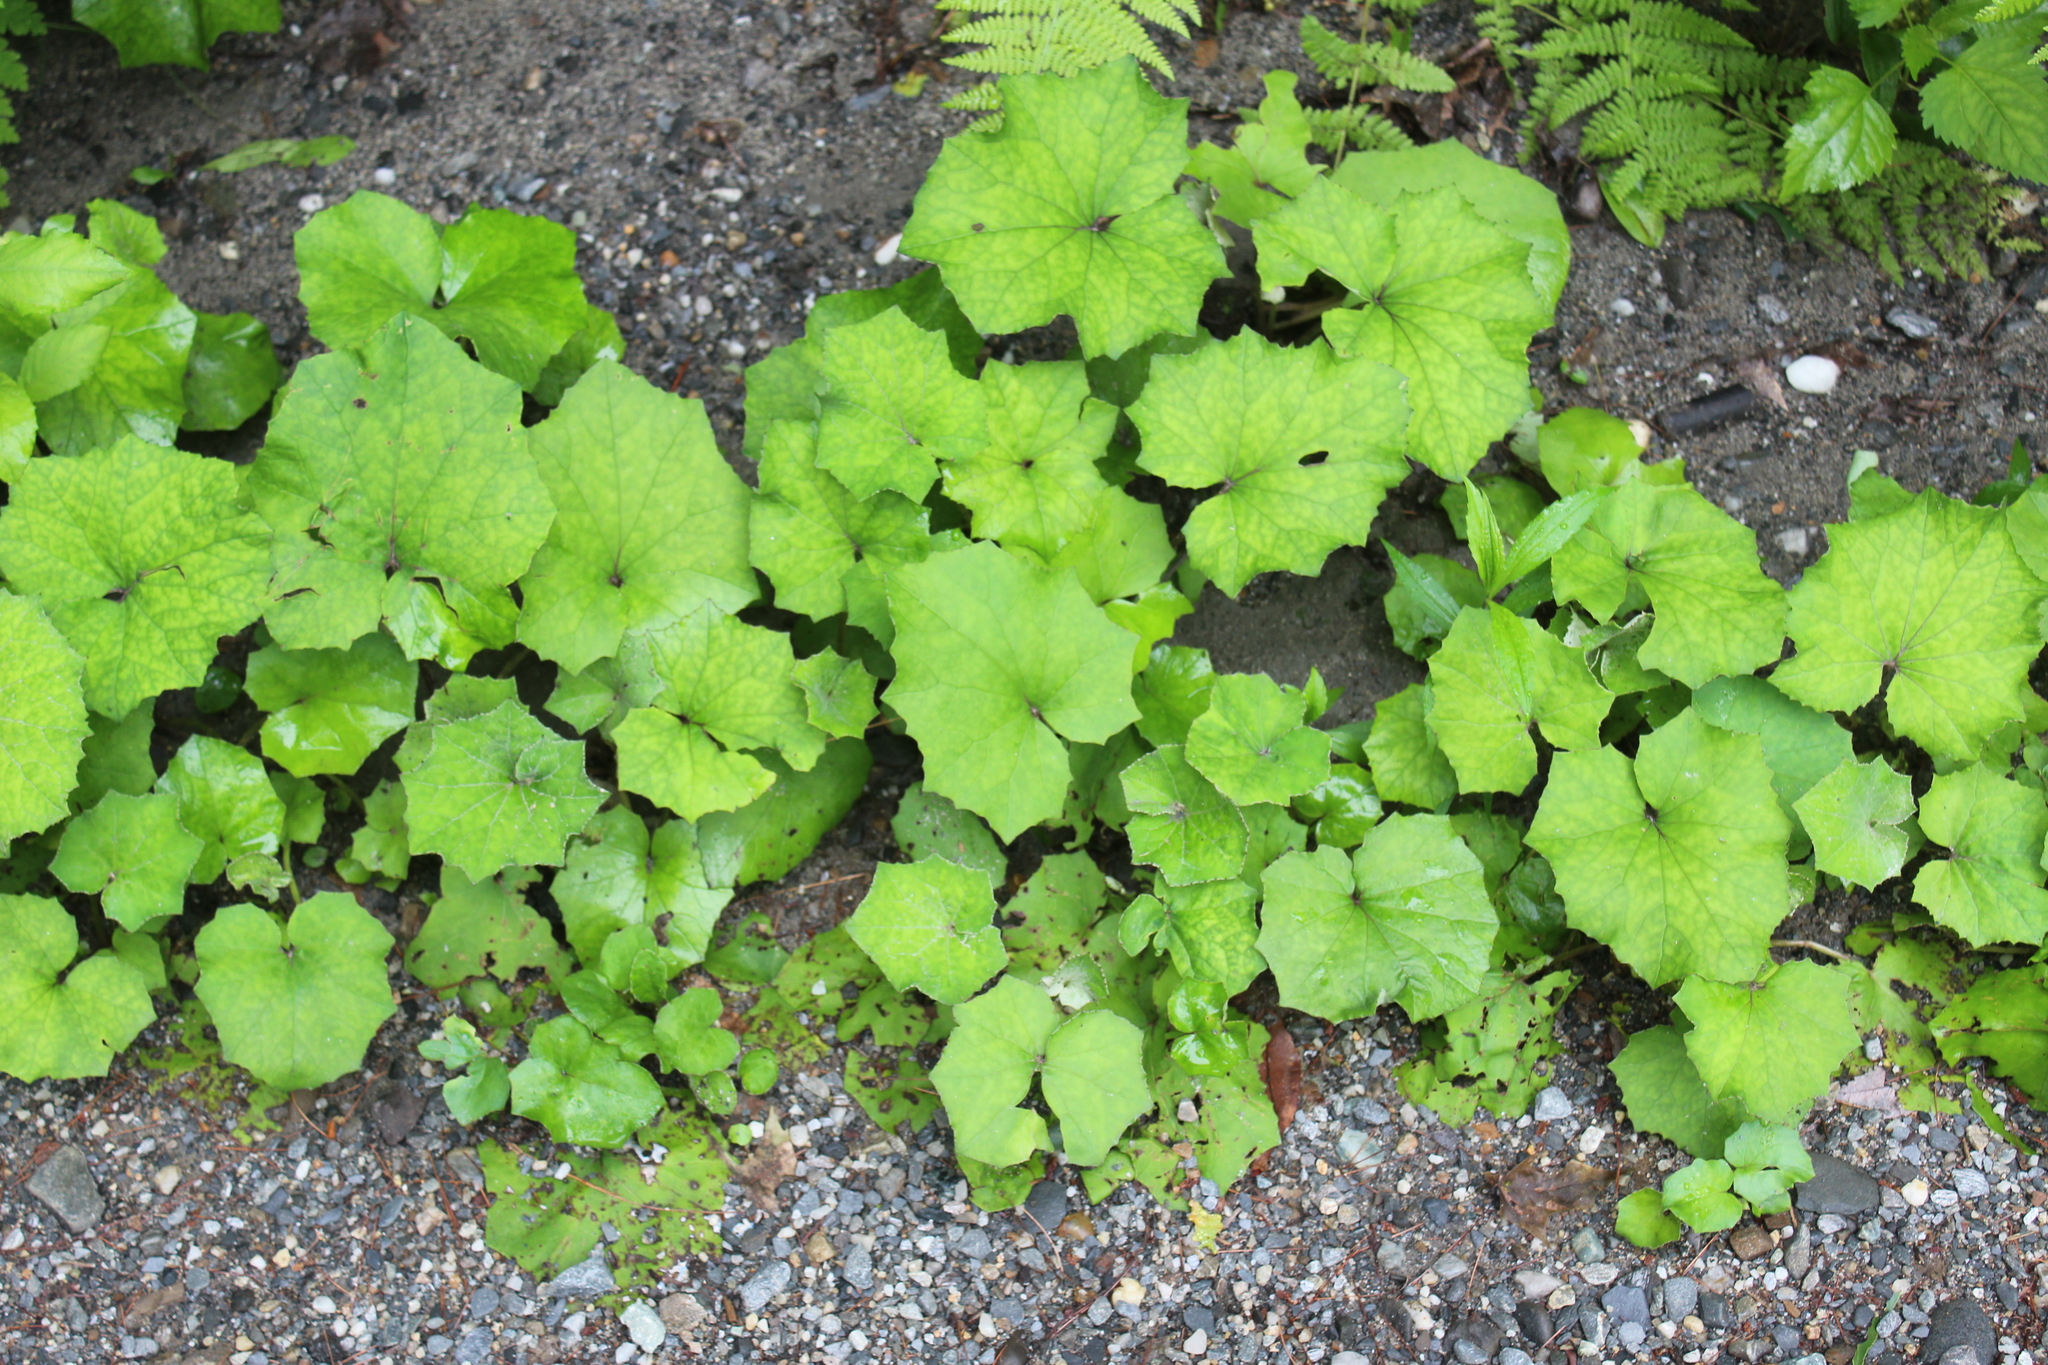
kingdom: Plantae
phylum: Tracheophyta
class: Magnoliopsida
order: Asterales
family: Asteraceae
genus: Tussilago
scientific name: Tussilago farfara
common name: Coltsfoot
